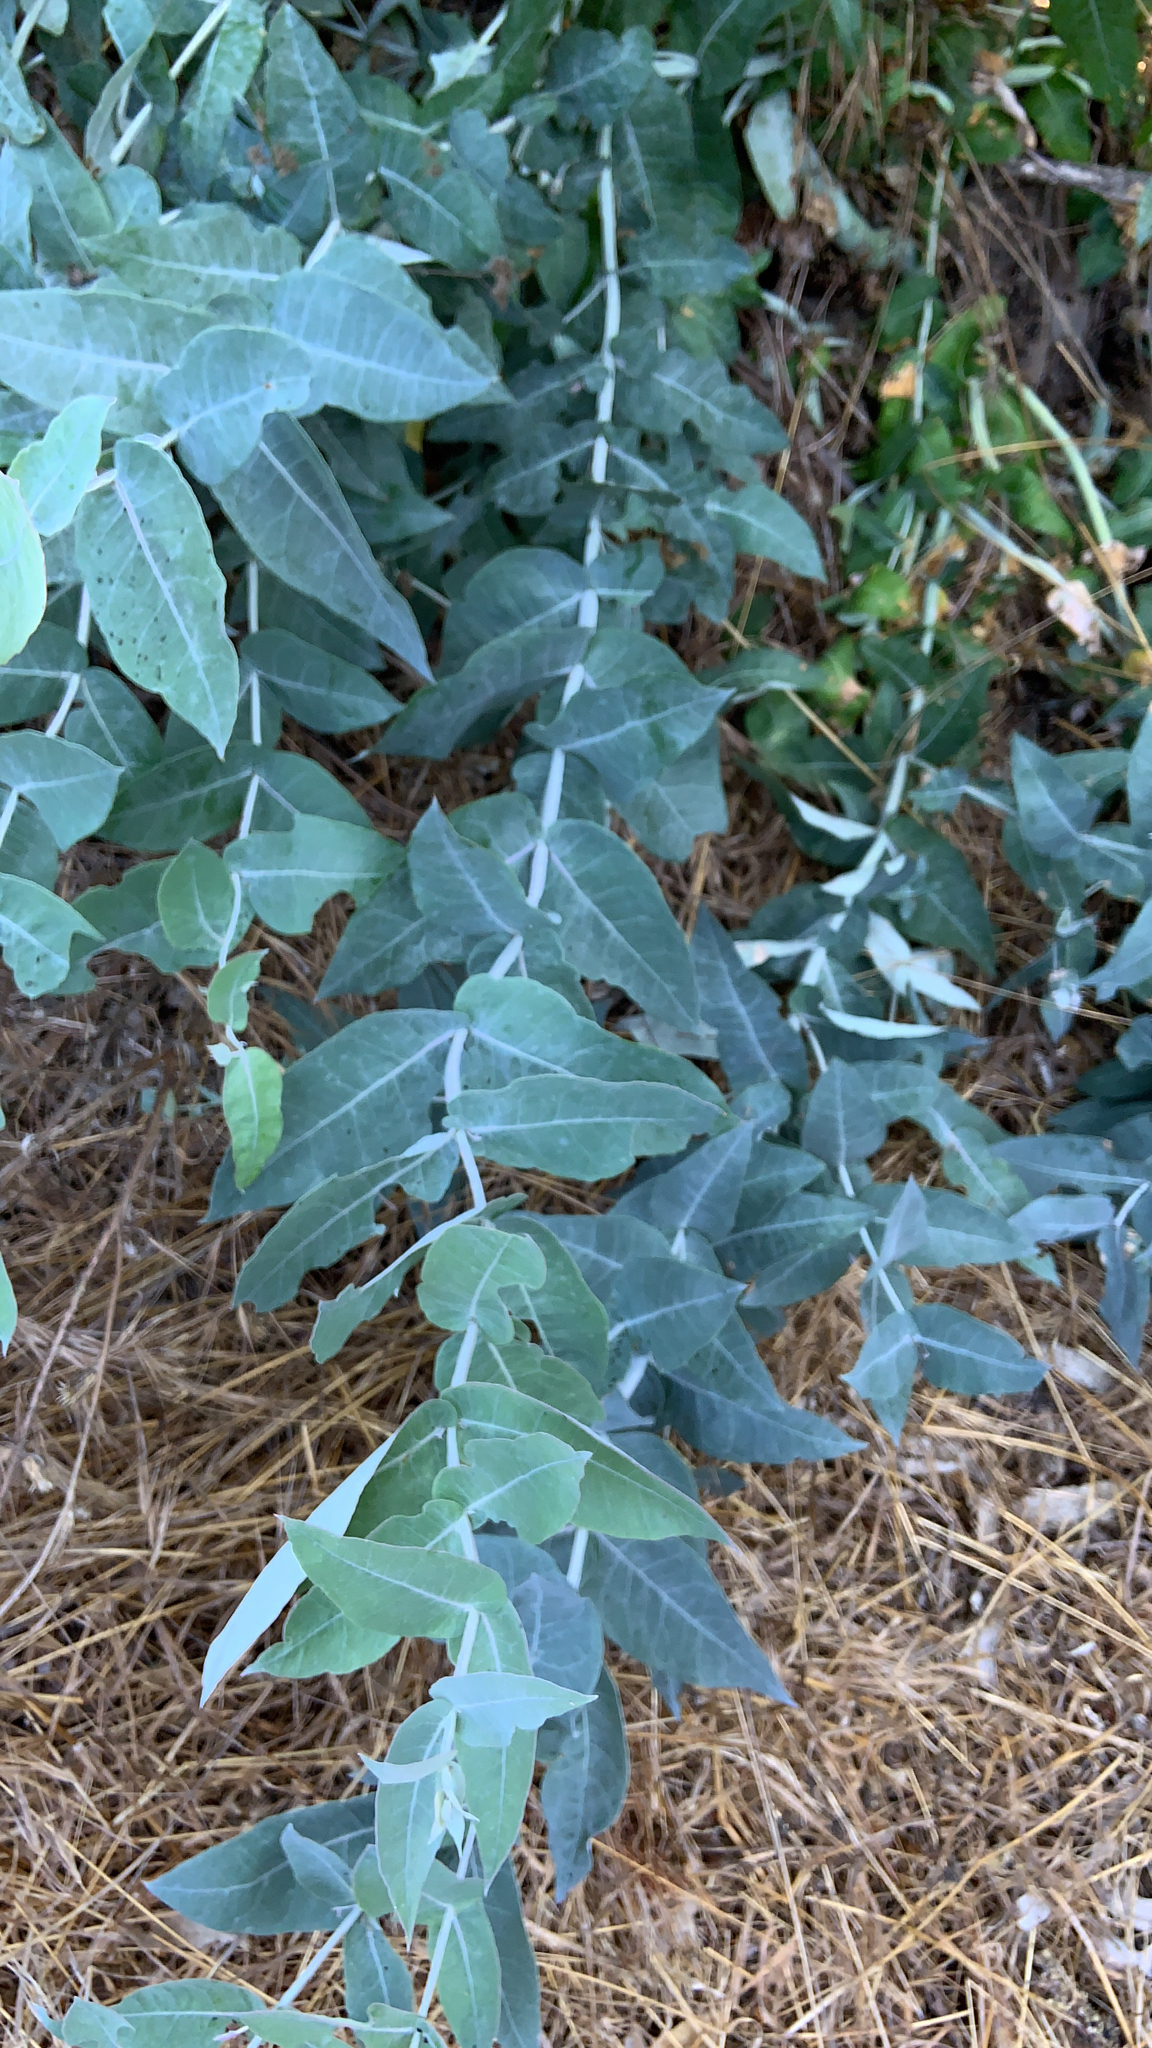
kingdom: Plantae
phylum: Tracheophyta
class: Magnoliopsida
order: Myrtales
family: Myrtaceae
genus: Eucalyptus
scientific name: Eucalyptus globulus
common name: Southern blue-gum
